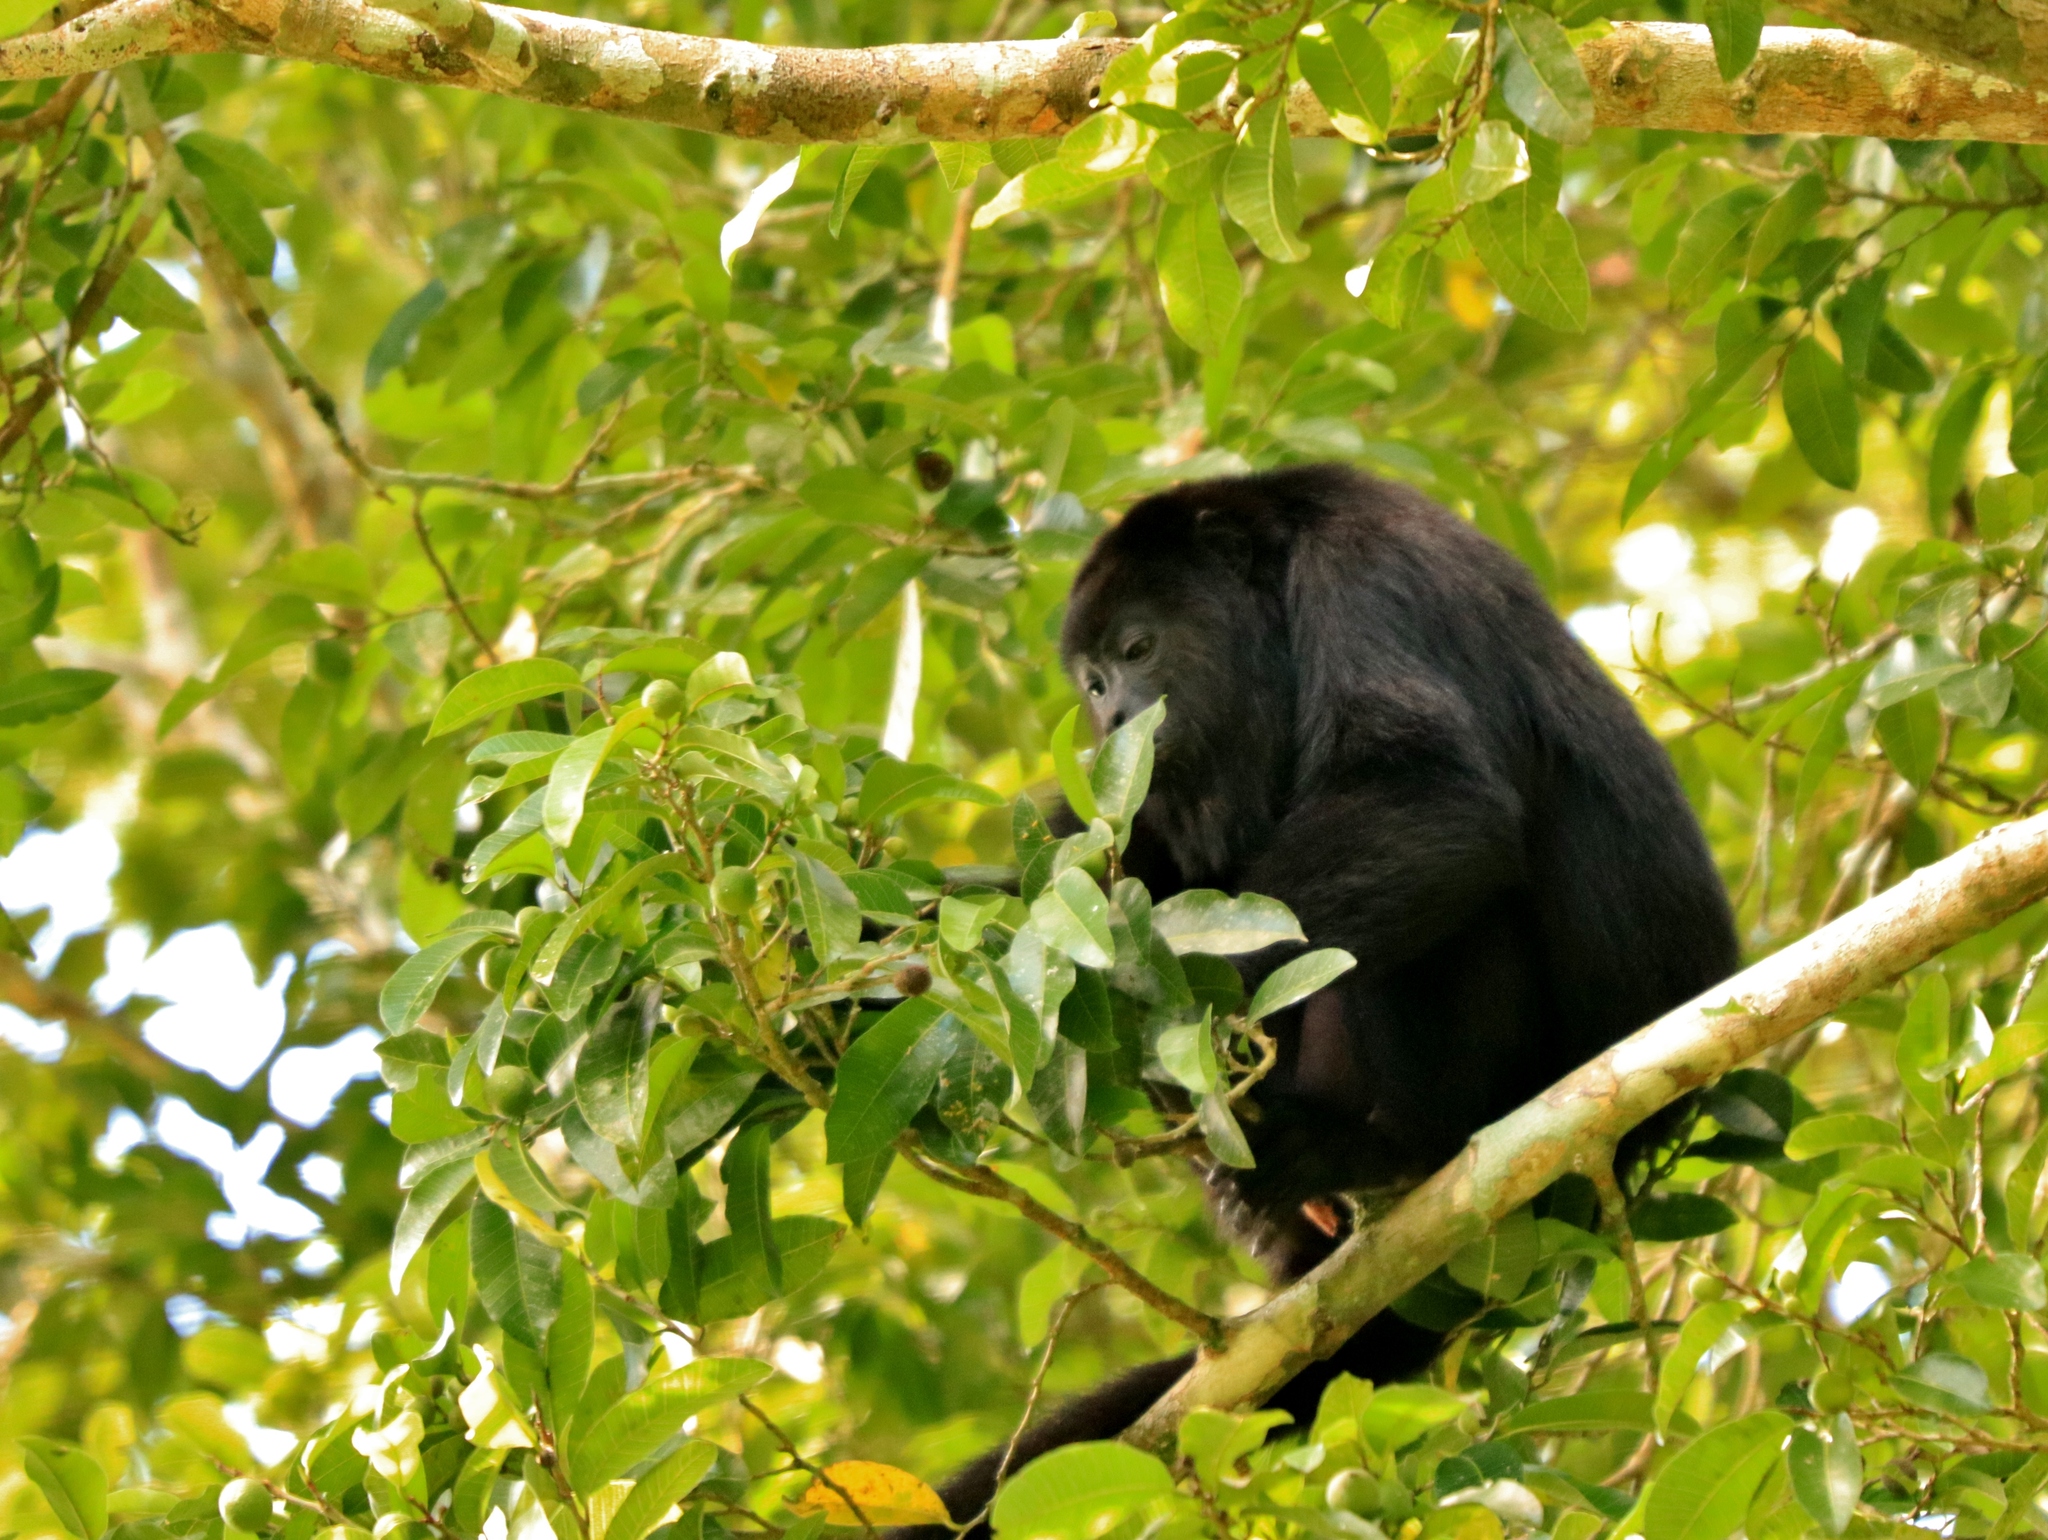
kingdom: Animalia
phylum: Chordata
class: Mammalia
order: Primates
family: Atelidae
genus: Alouatta
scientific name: Alouatta pigra
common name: Guatemalan black howler
